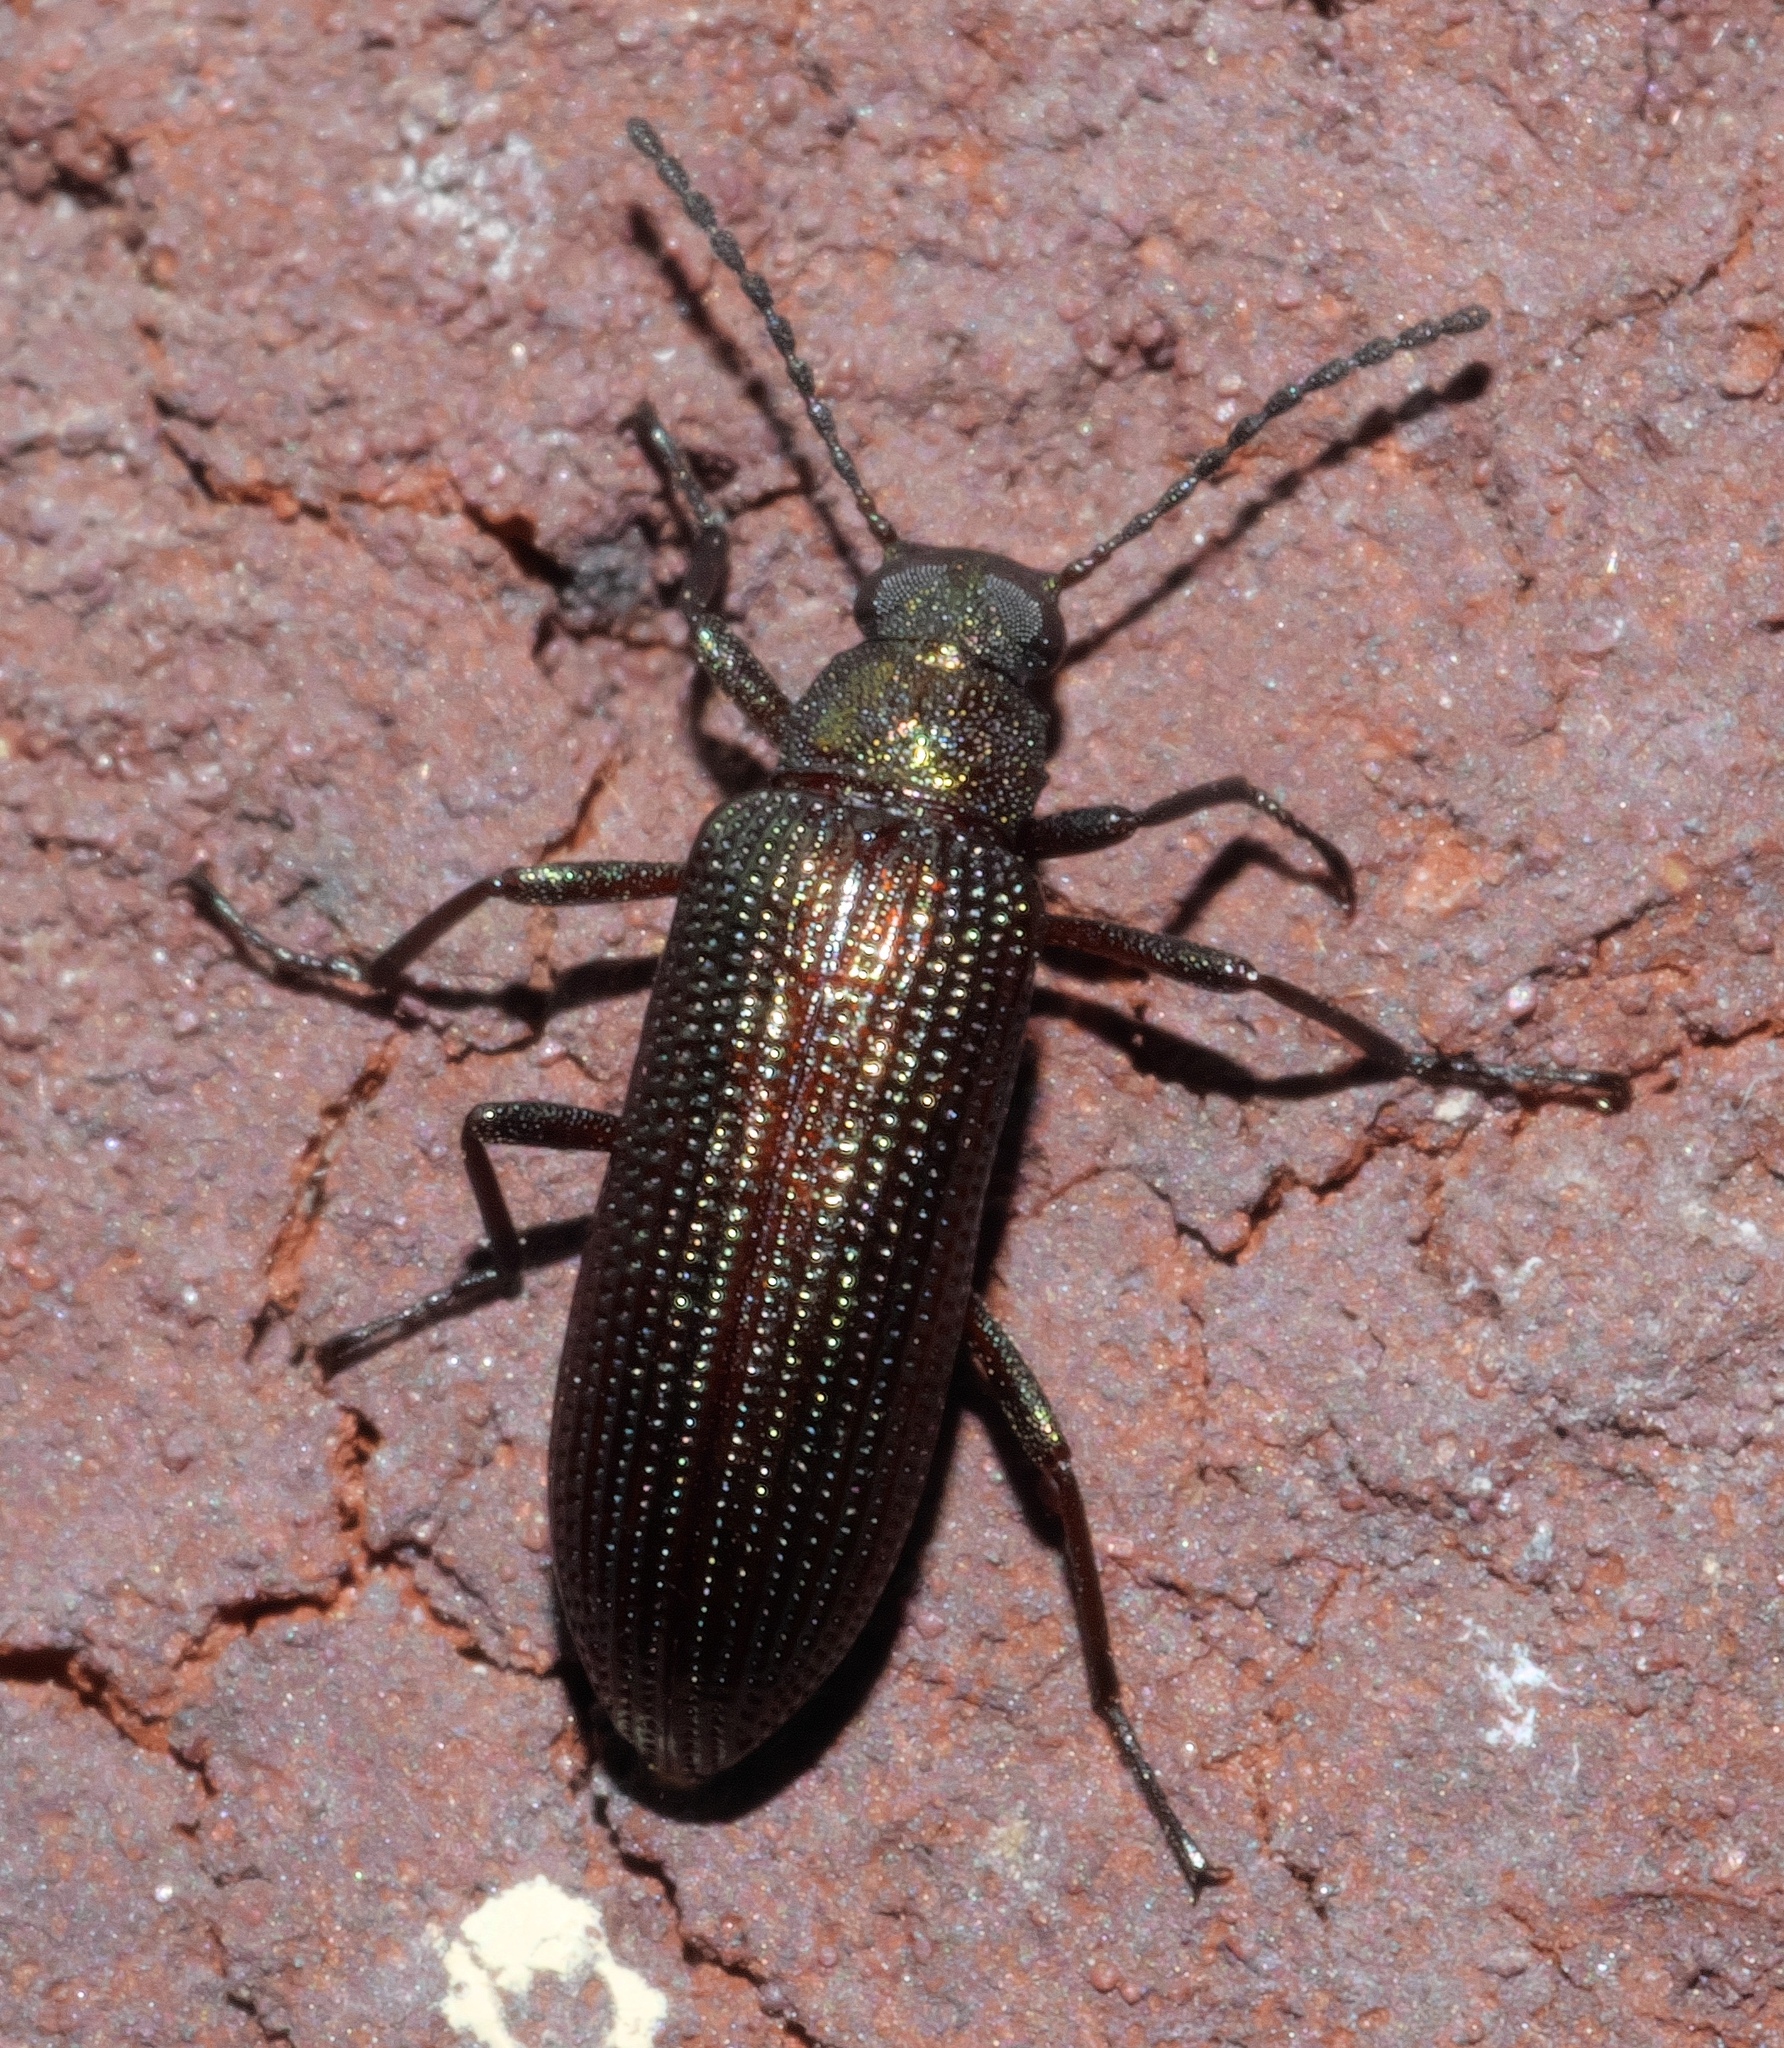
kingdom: Animalia
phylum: Arthropoda
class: Insecta
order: Coleoptera
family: Tenebrionidae
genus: Strongylium
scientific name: Strongylium
